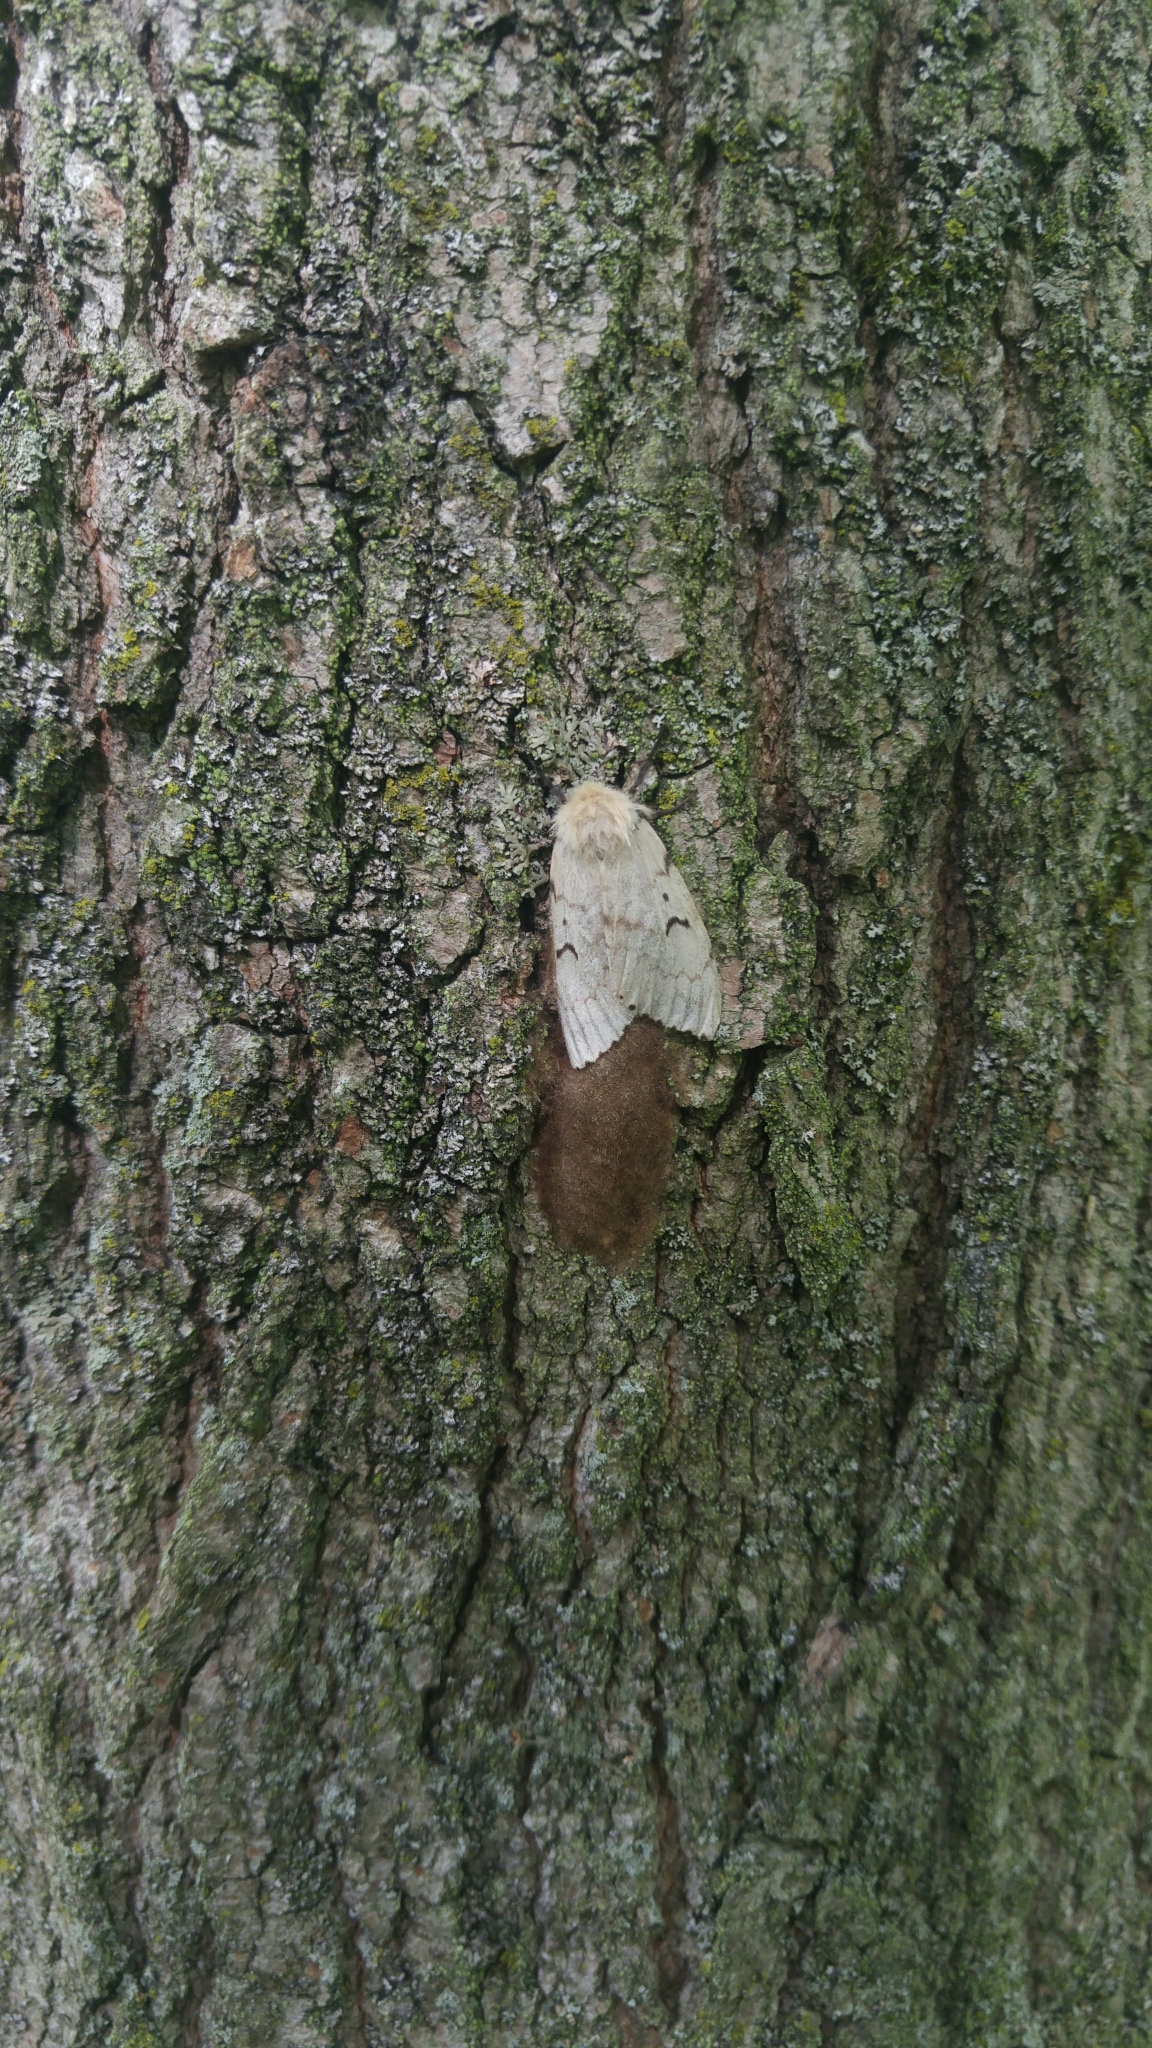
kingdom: Animalia
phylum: Arthropoda
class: Insecta
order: Lepidoptera
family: Erebidae
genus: Lymantria
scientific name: Lymantria dispar
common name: Gypsy moth
